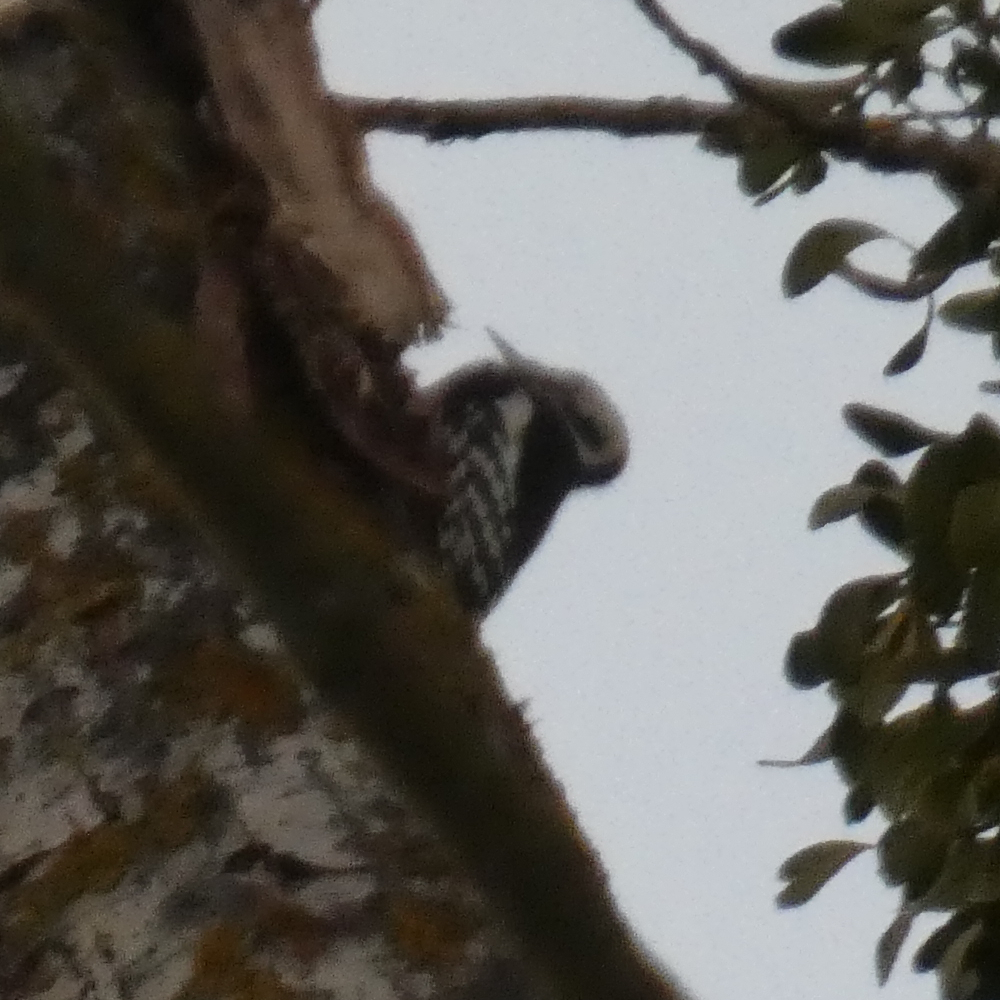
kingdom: Animalia
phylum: Chordata
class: Aves
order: Piciformes
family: Picidae
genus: Dendrocoptes
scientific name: Dendrocoptes medius
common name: Middle spotted woodpecker
